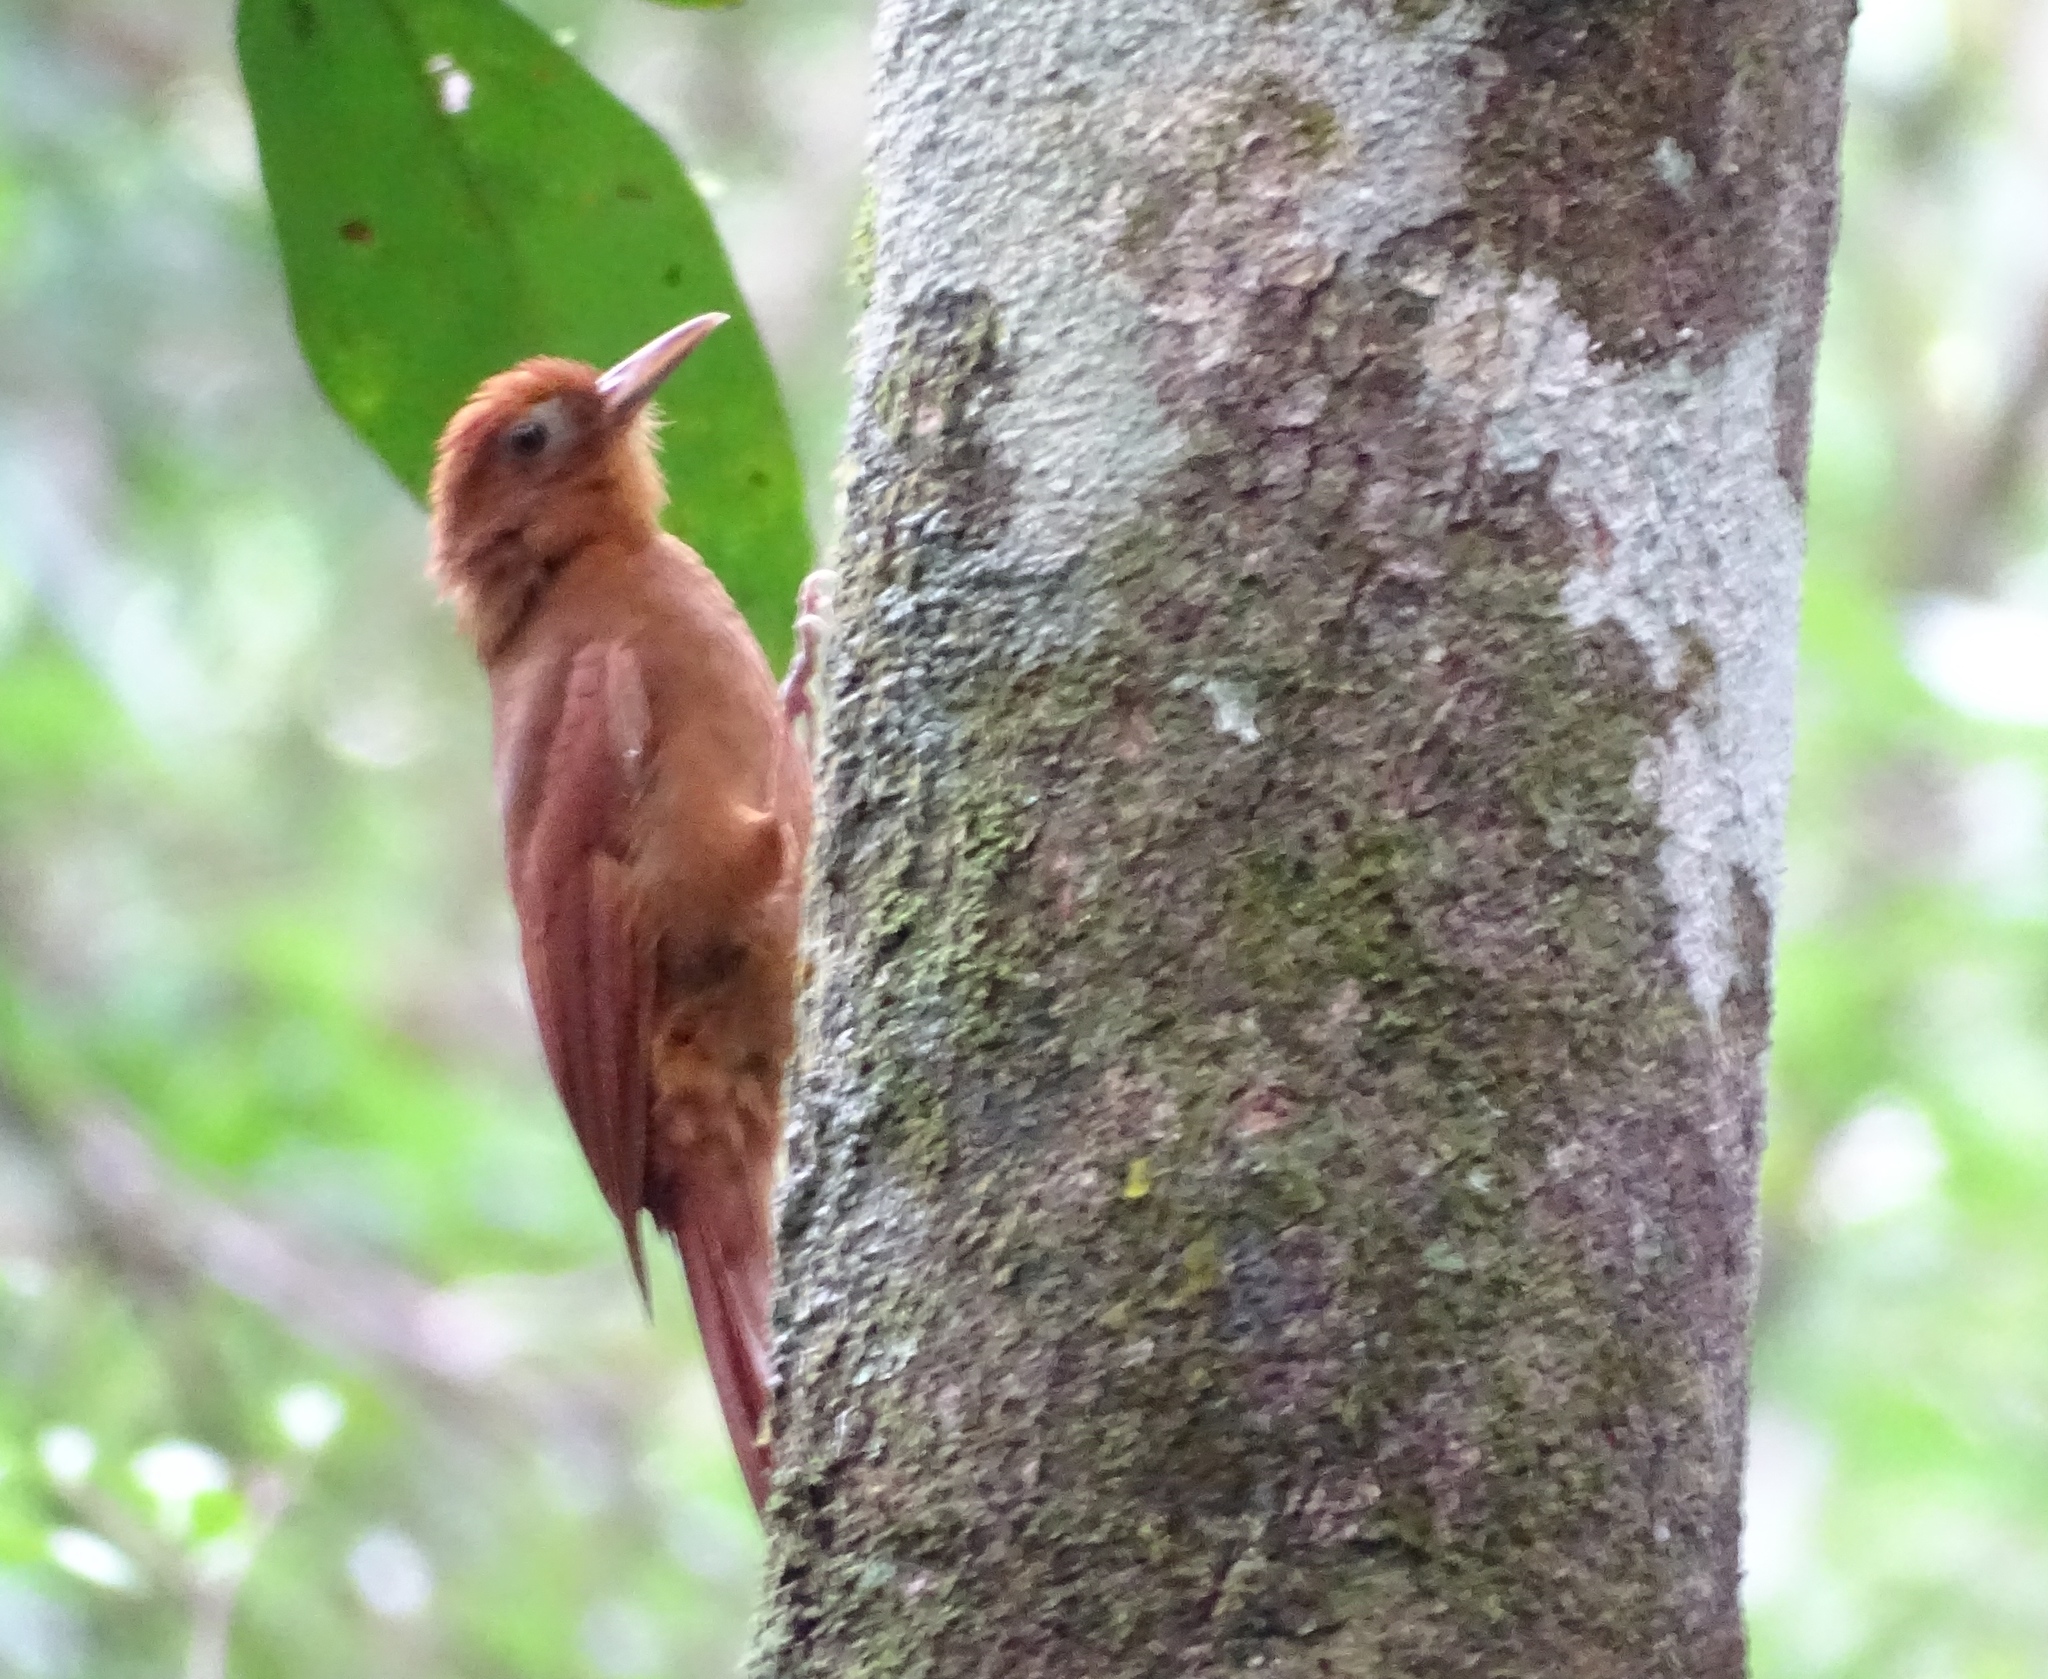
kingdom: Animalia
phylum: Chordata
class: Aves
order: Passeriformes
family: Furnariidae
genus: Dendrocincla
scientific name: Dendrocincla homochroa
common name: Ruddy woodcreeper
